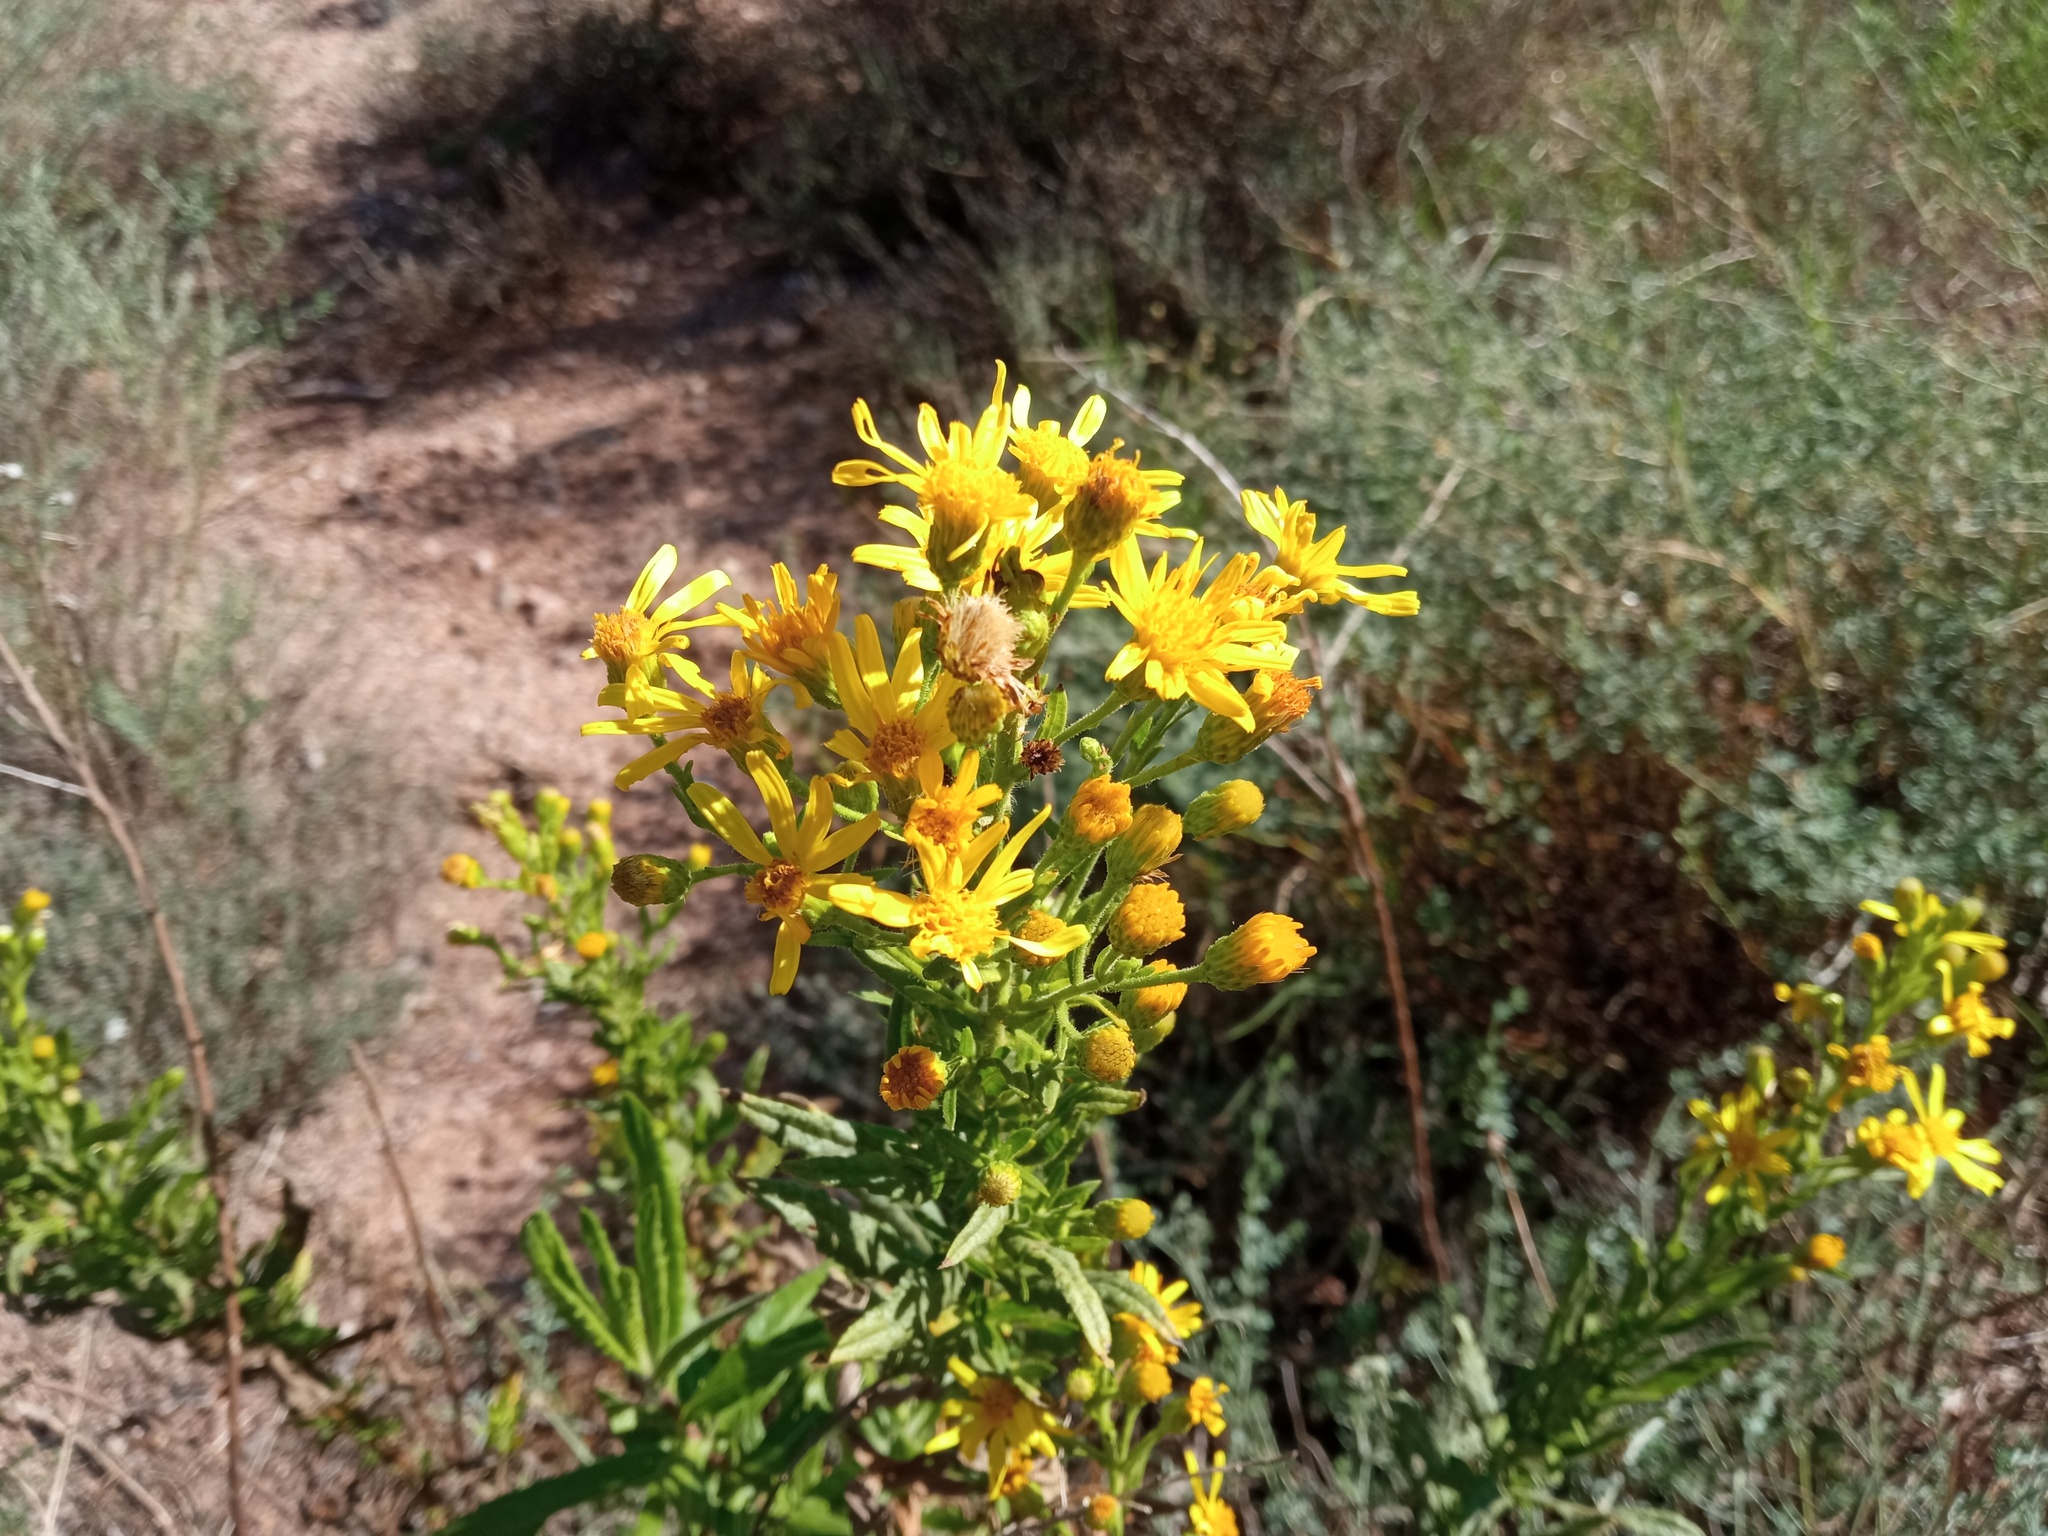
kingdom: Plantae
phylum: Tracheophyta
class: Magnoliopsida
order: Asterales
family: Asteraceae
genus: Dittrichia
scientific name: Dittrichia viscosa
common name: Woody fleabane
